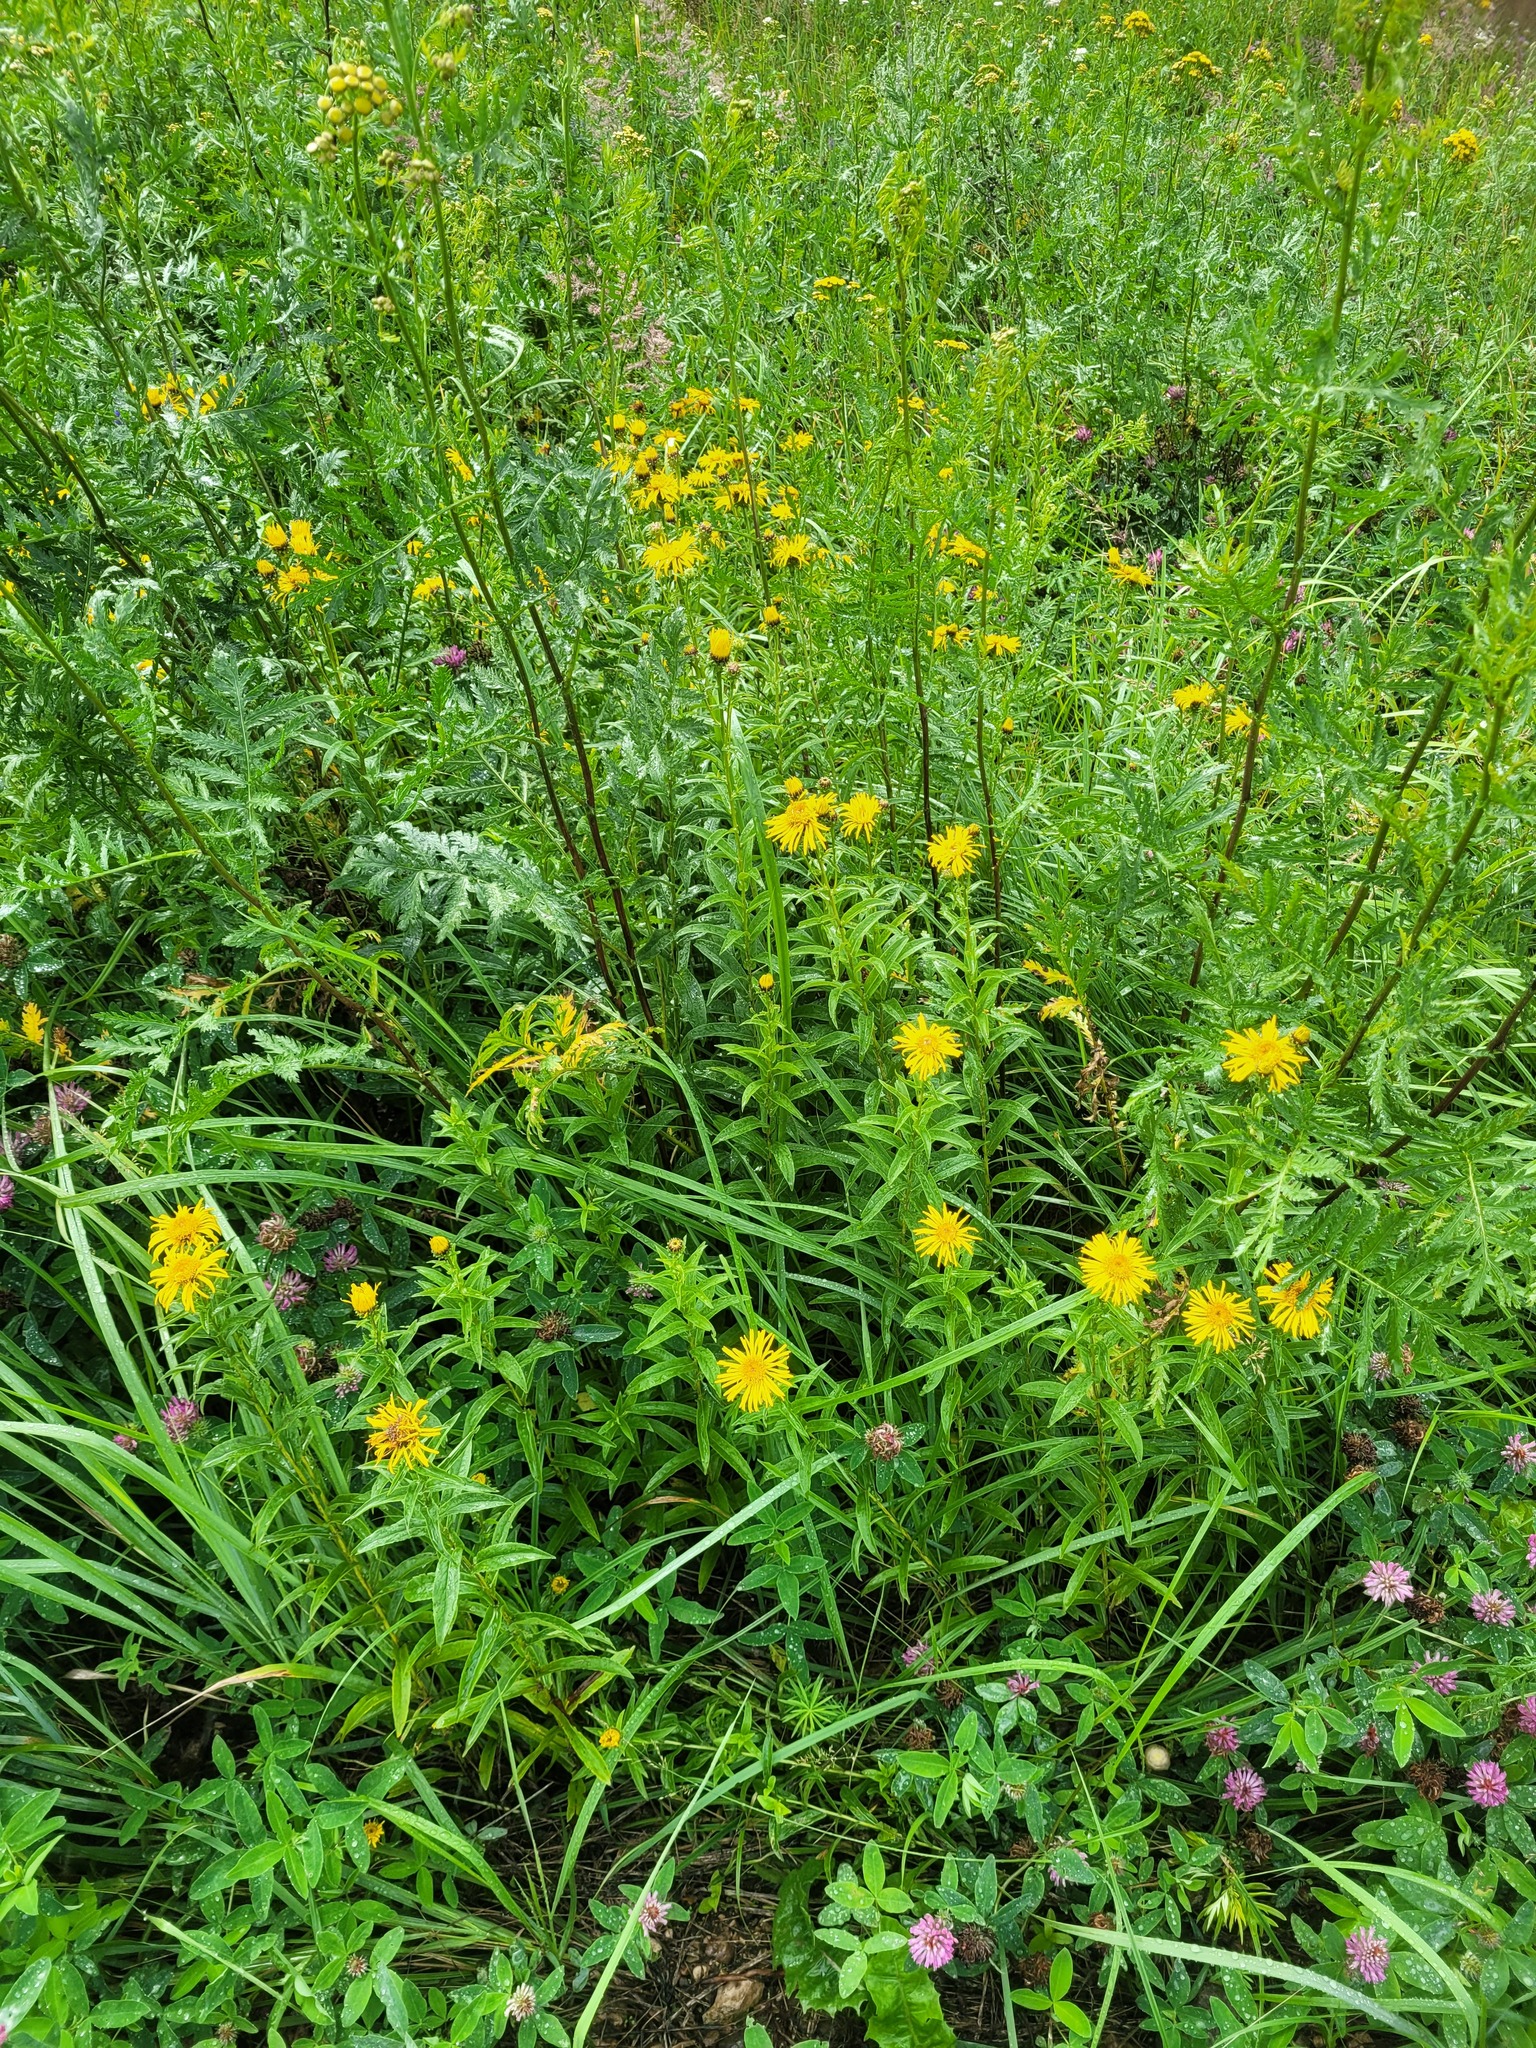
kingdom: Plantae
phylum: Tracheophyta
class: Magnoliopsida
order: Asterales
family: Asteraceae
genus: Pentanema
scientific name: Pentanema salicinum
